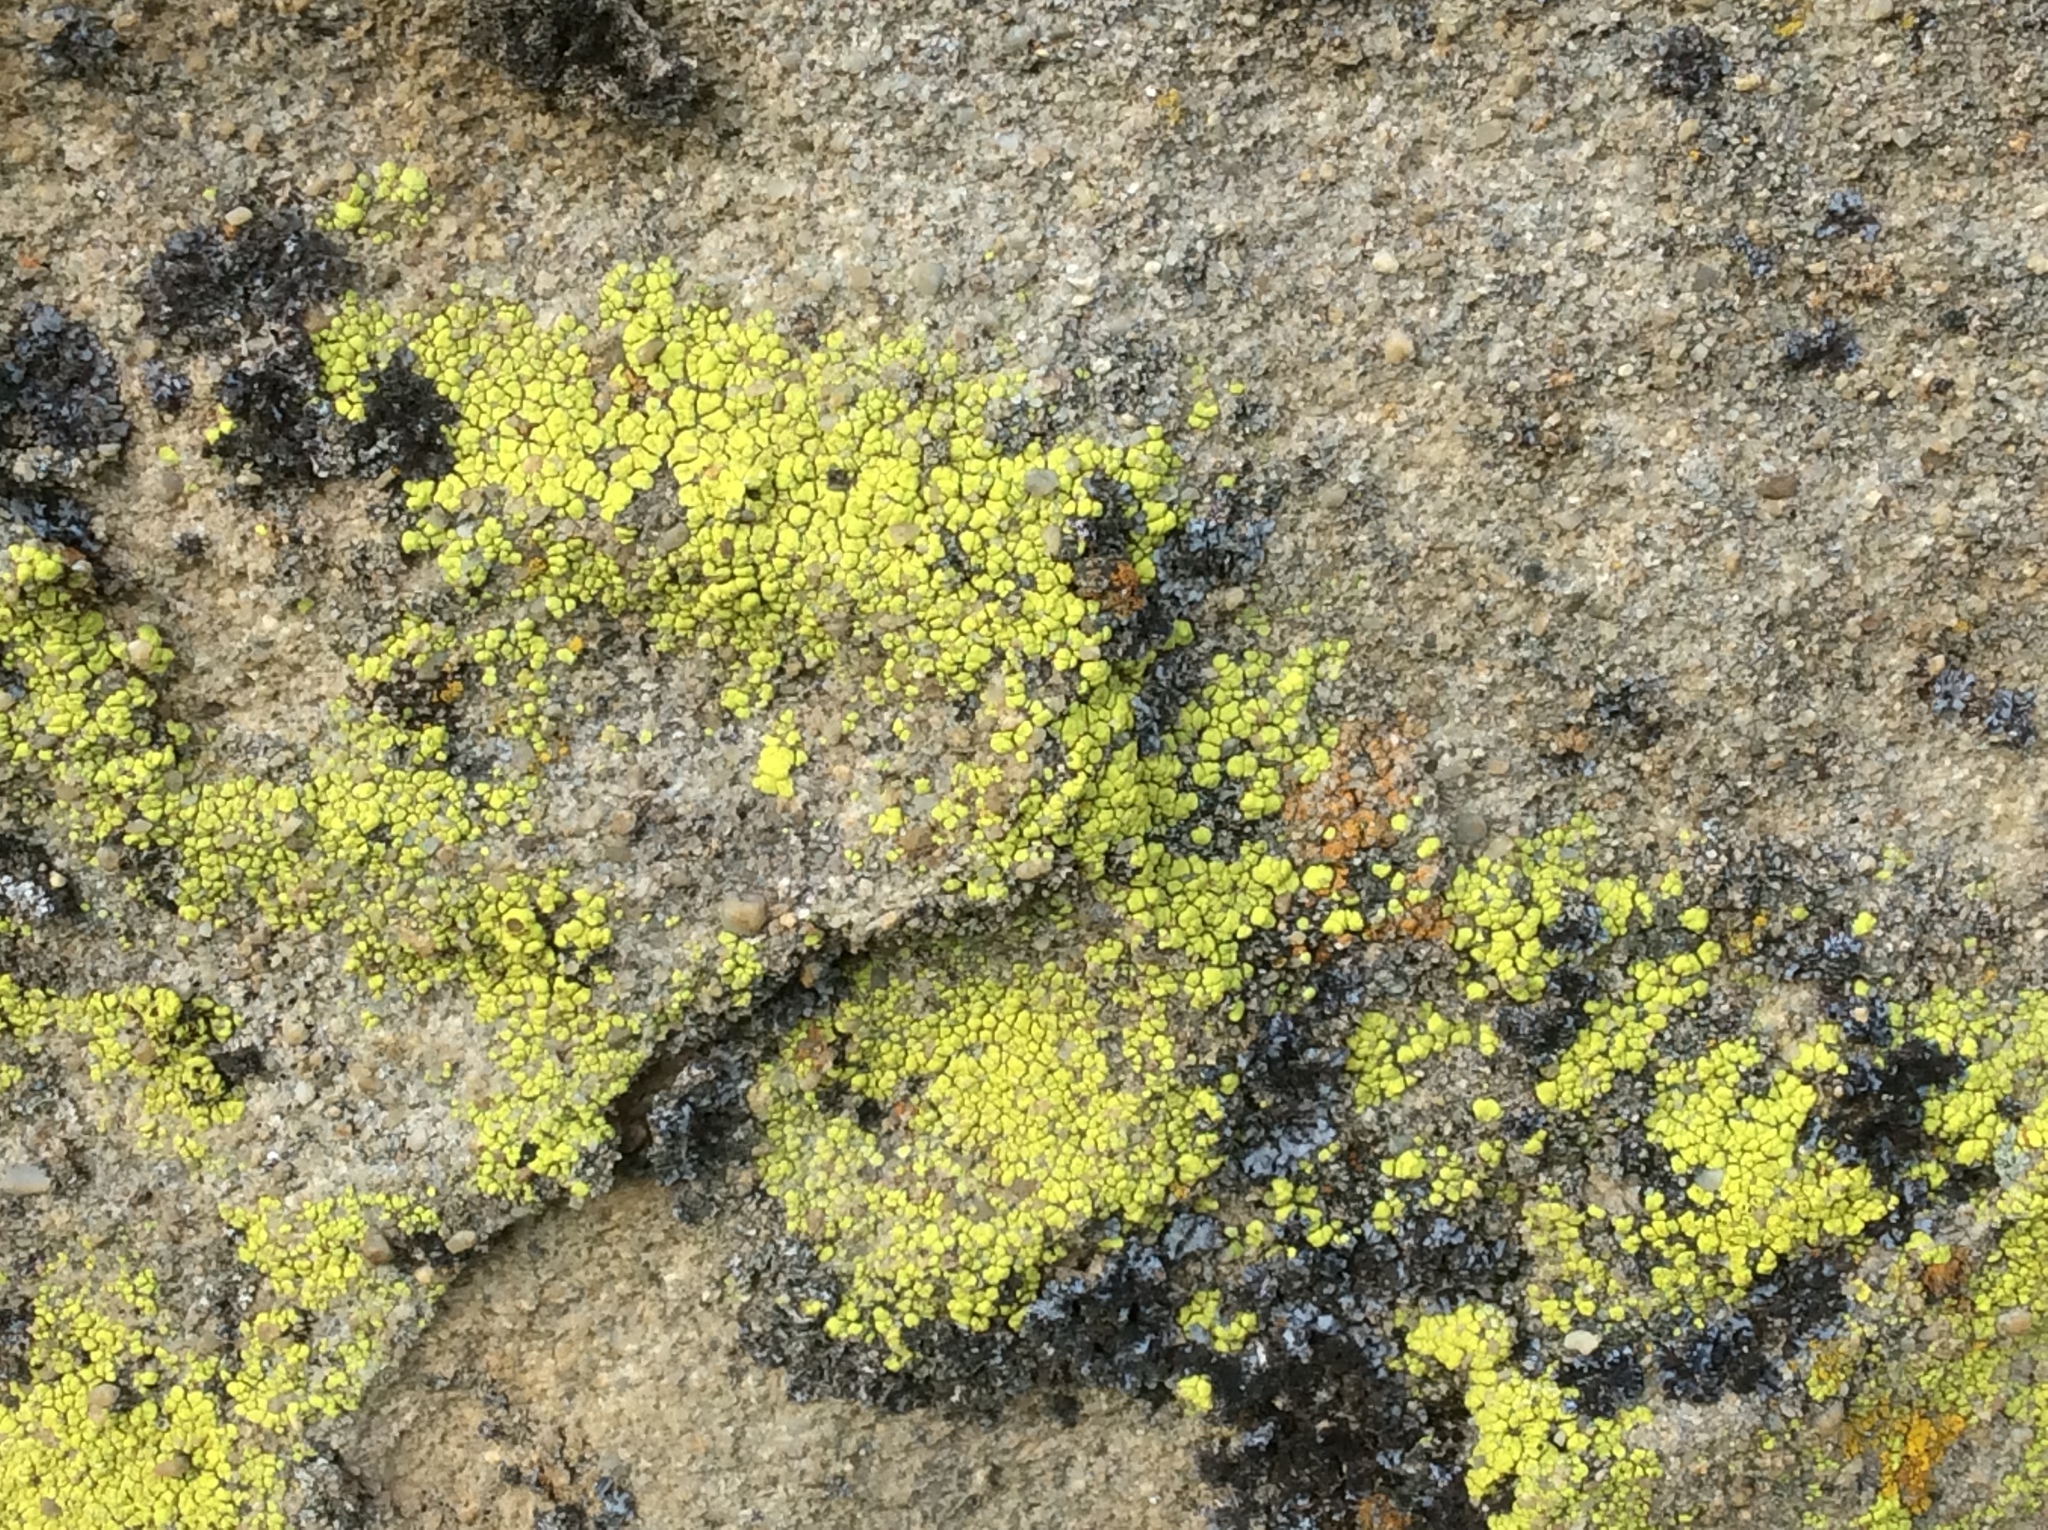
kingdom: Fungi
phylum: Ascomycota
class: Lecanoromycetes
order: Acarosporales
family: Acarosporaceae
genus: Acarospora
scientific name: Acarospora socialis
